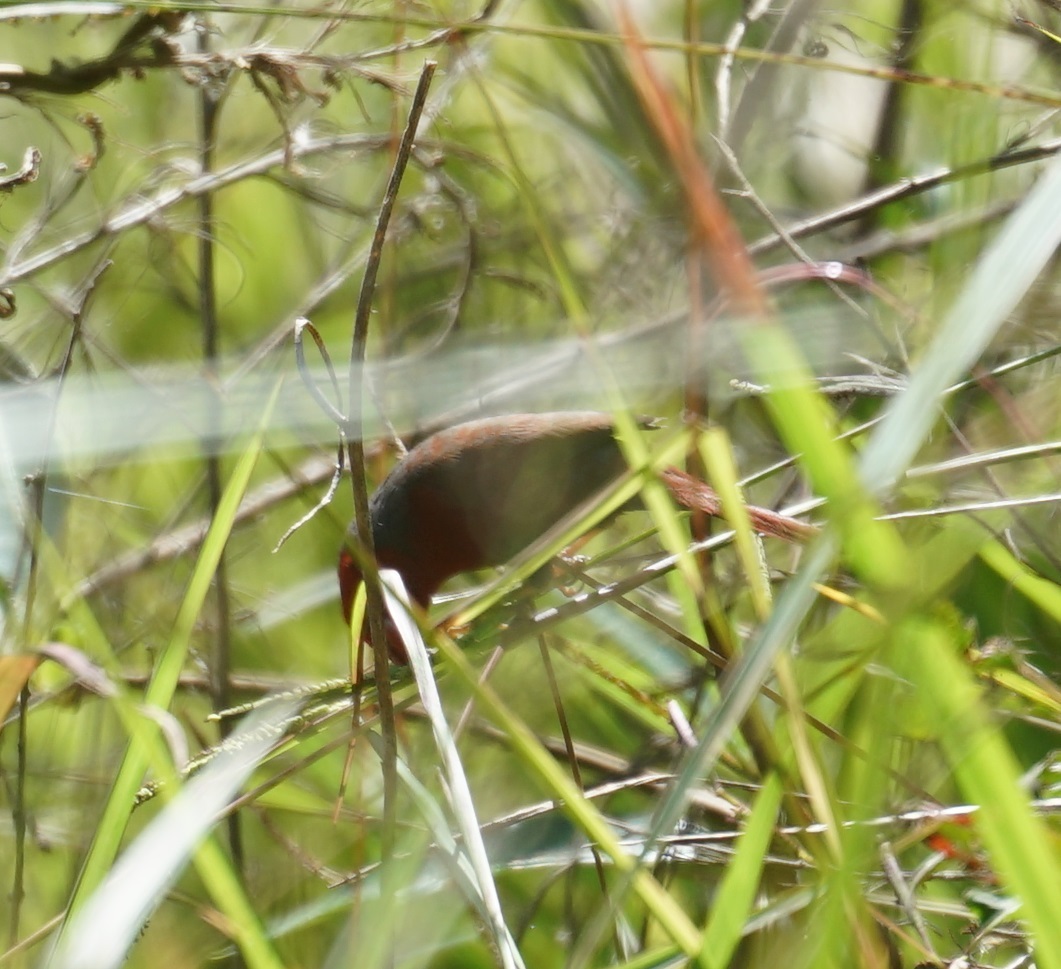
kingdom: Animalia
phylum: Chordata
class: Aves
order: Passeriformes
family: Estrildidae
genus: Neochmia
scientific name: Neochmia phaeton
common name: Crimson finch
